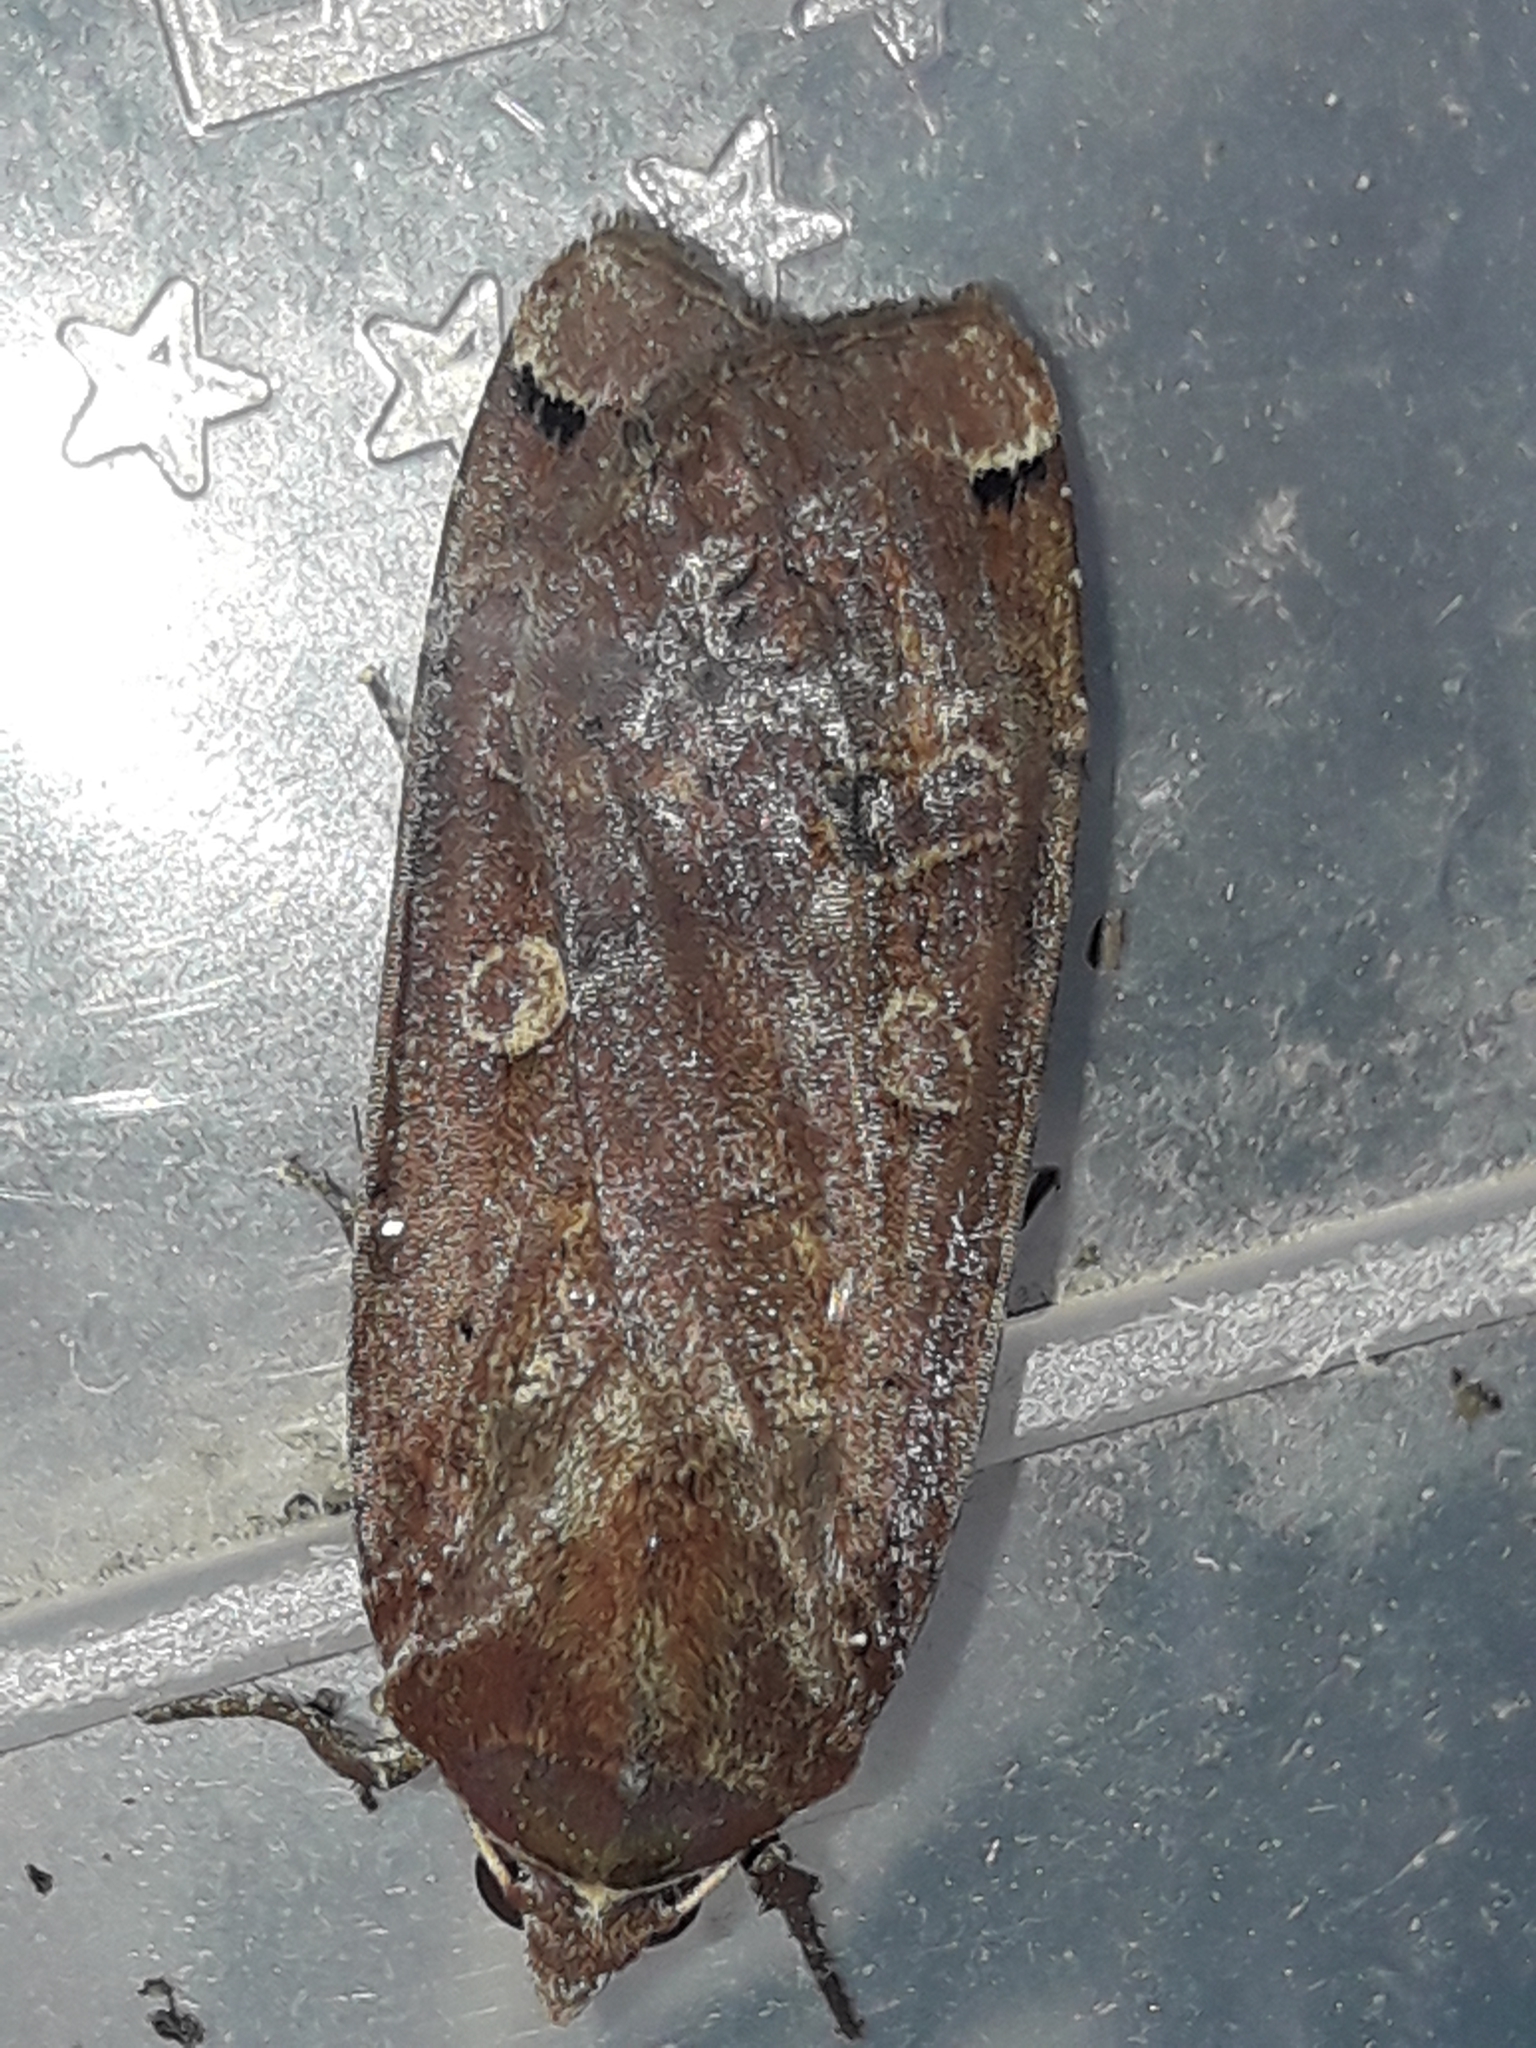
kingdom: Animalia
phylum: Arthropoda
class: Insecta
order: Lepidoptera
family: Noctuidae
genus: Noctua
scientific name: Noctua pronuba
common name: Large yellow underwing
